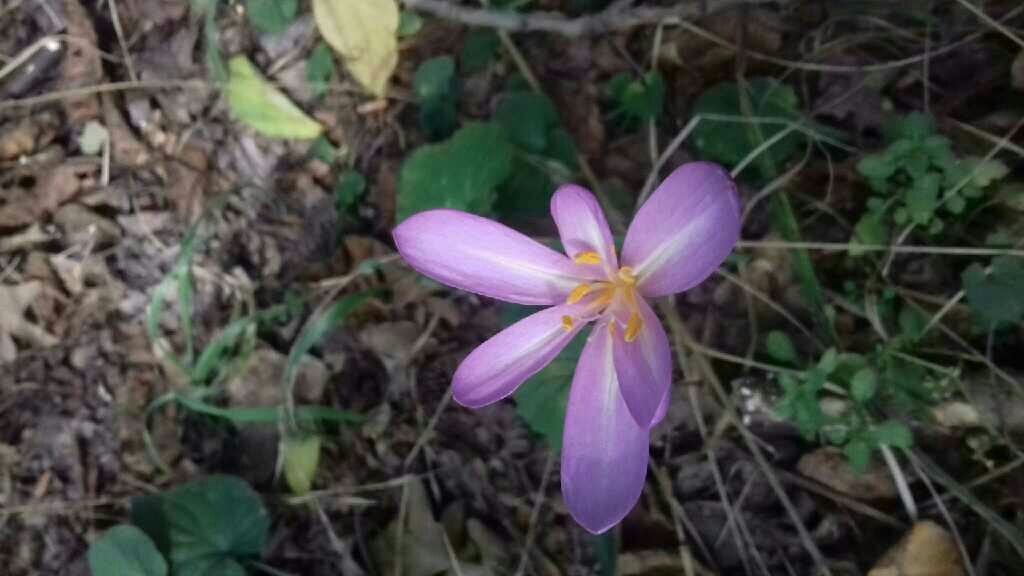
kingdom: Plantae
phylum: Tracheophyta
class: Liliopsida
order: Liliales
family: Colchicaceae
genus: Colchicum
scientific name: Colchicum autumnale
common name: Autumn crocus
